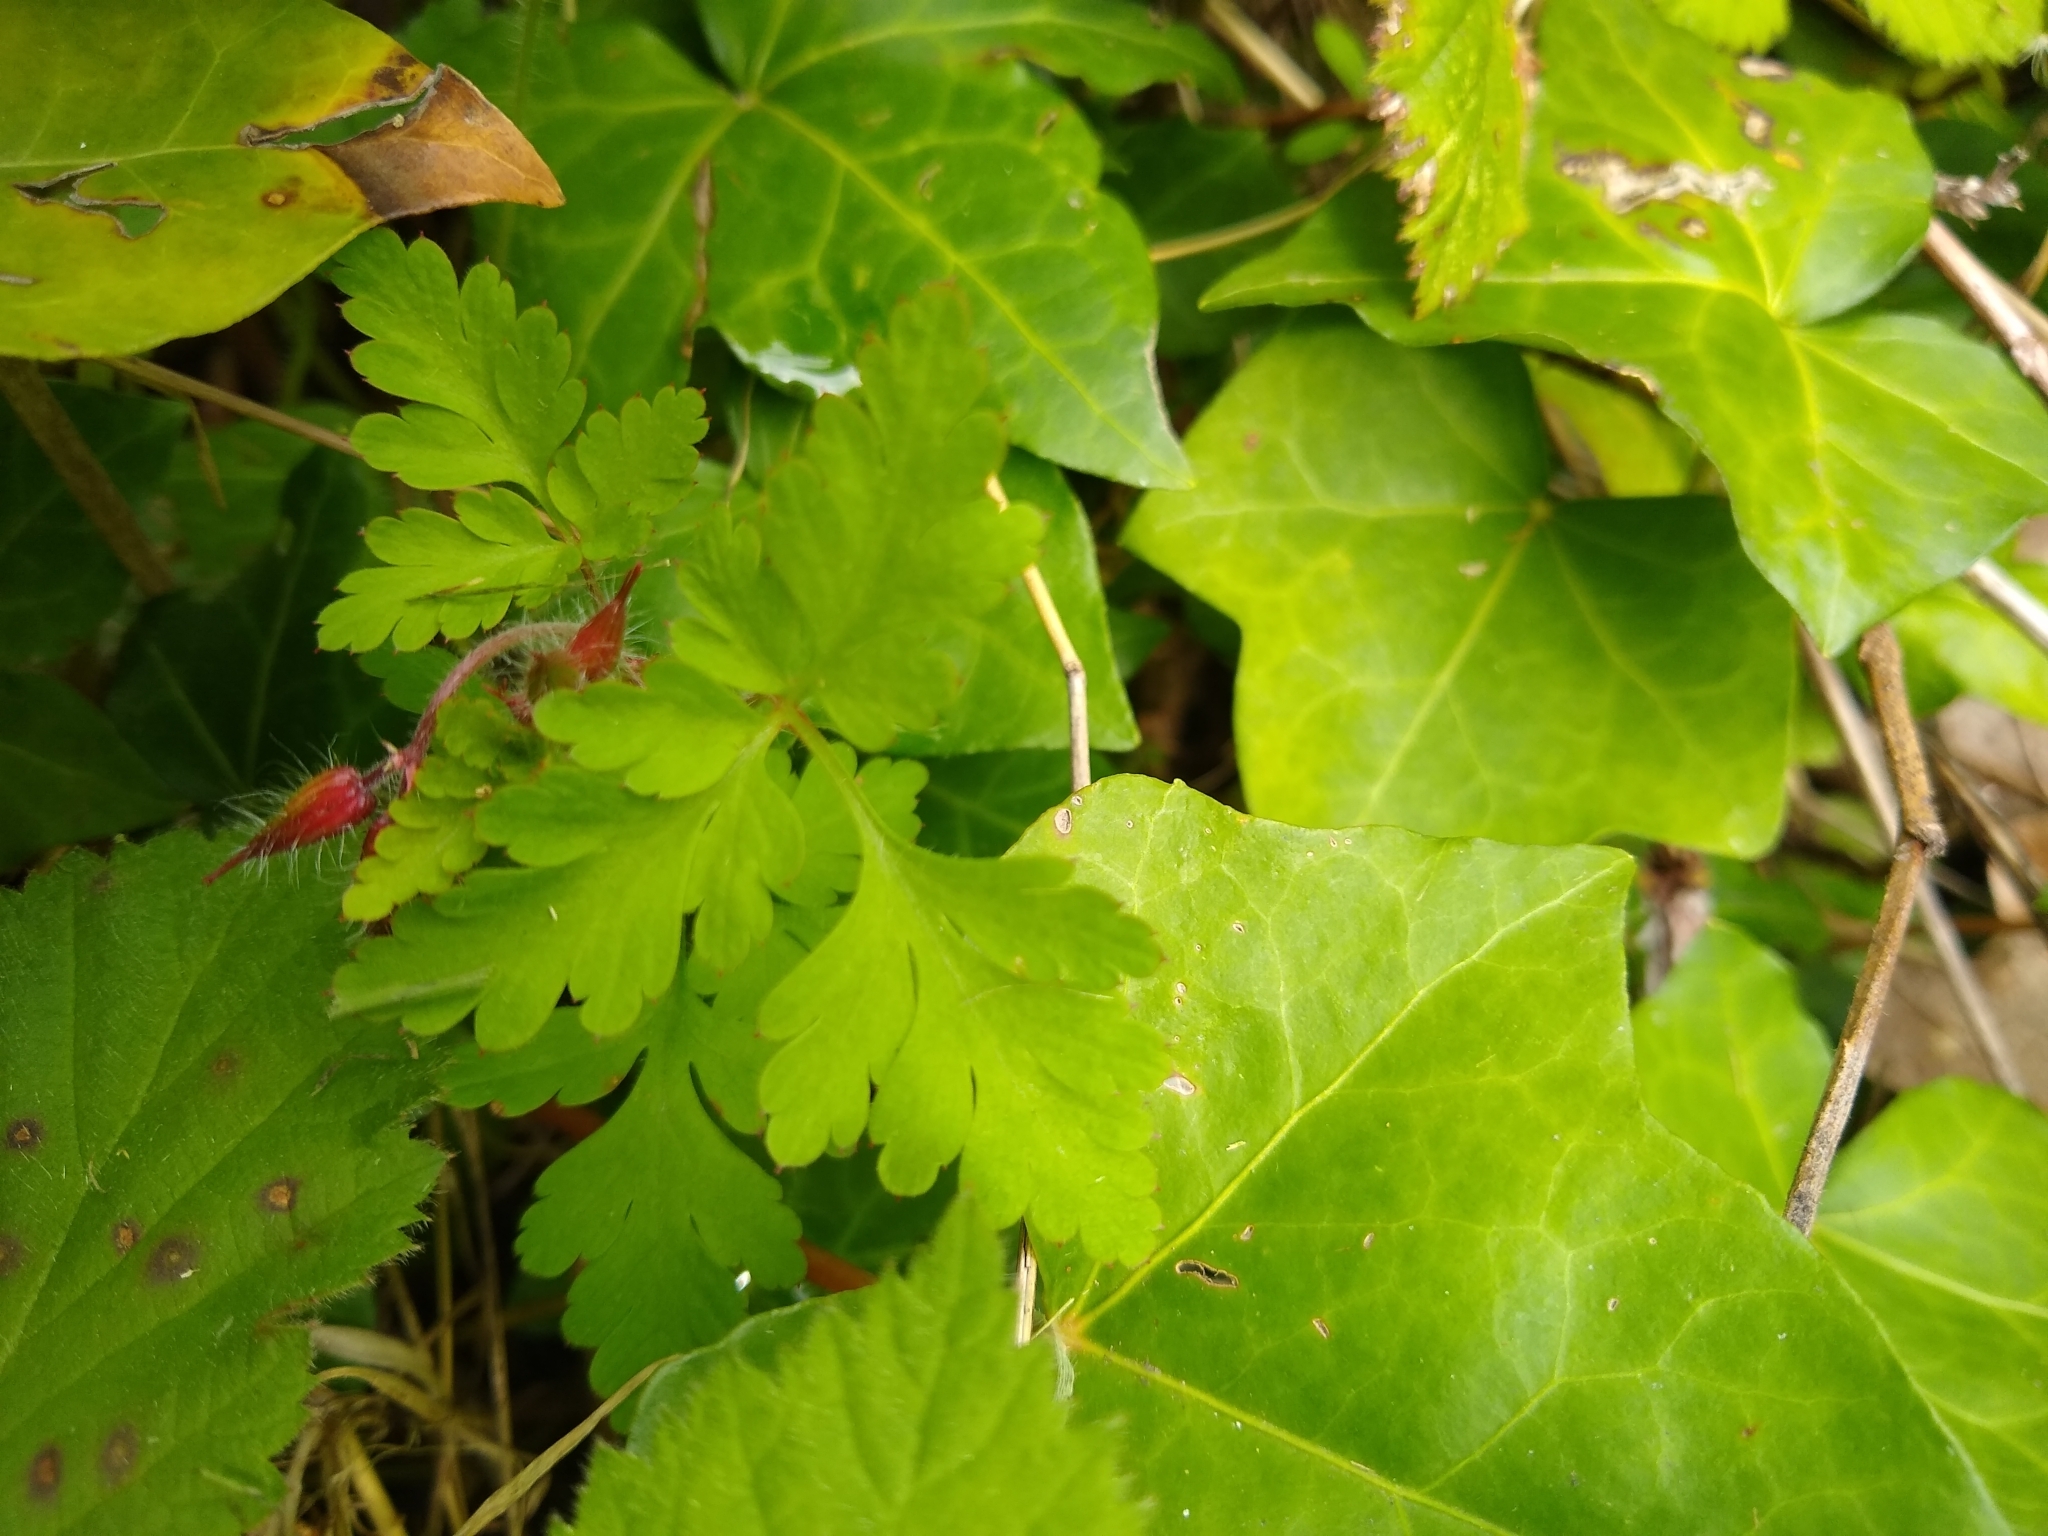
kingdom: Plantae
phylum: Tracheophyta
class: Magnoliopsida
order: Geraniales
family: Geraniaceae
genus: Geranium
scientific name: Geranium robertianum
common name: Herb-robert
